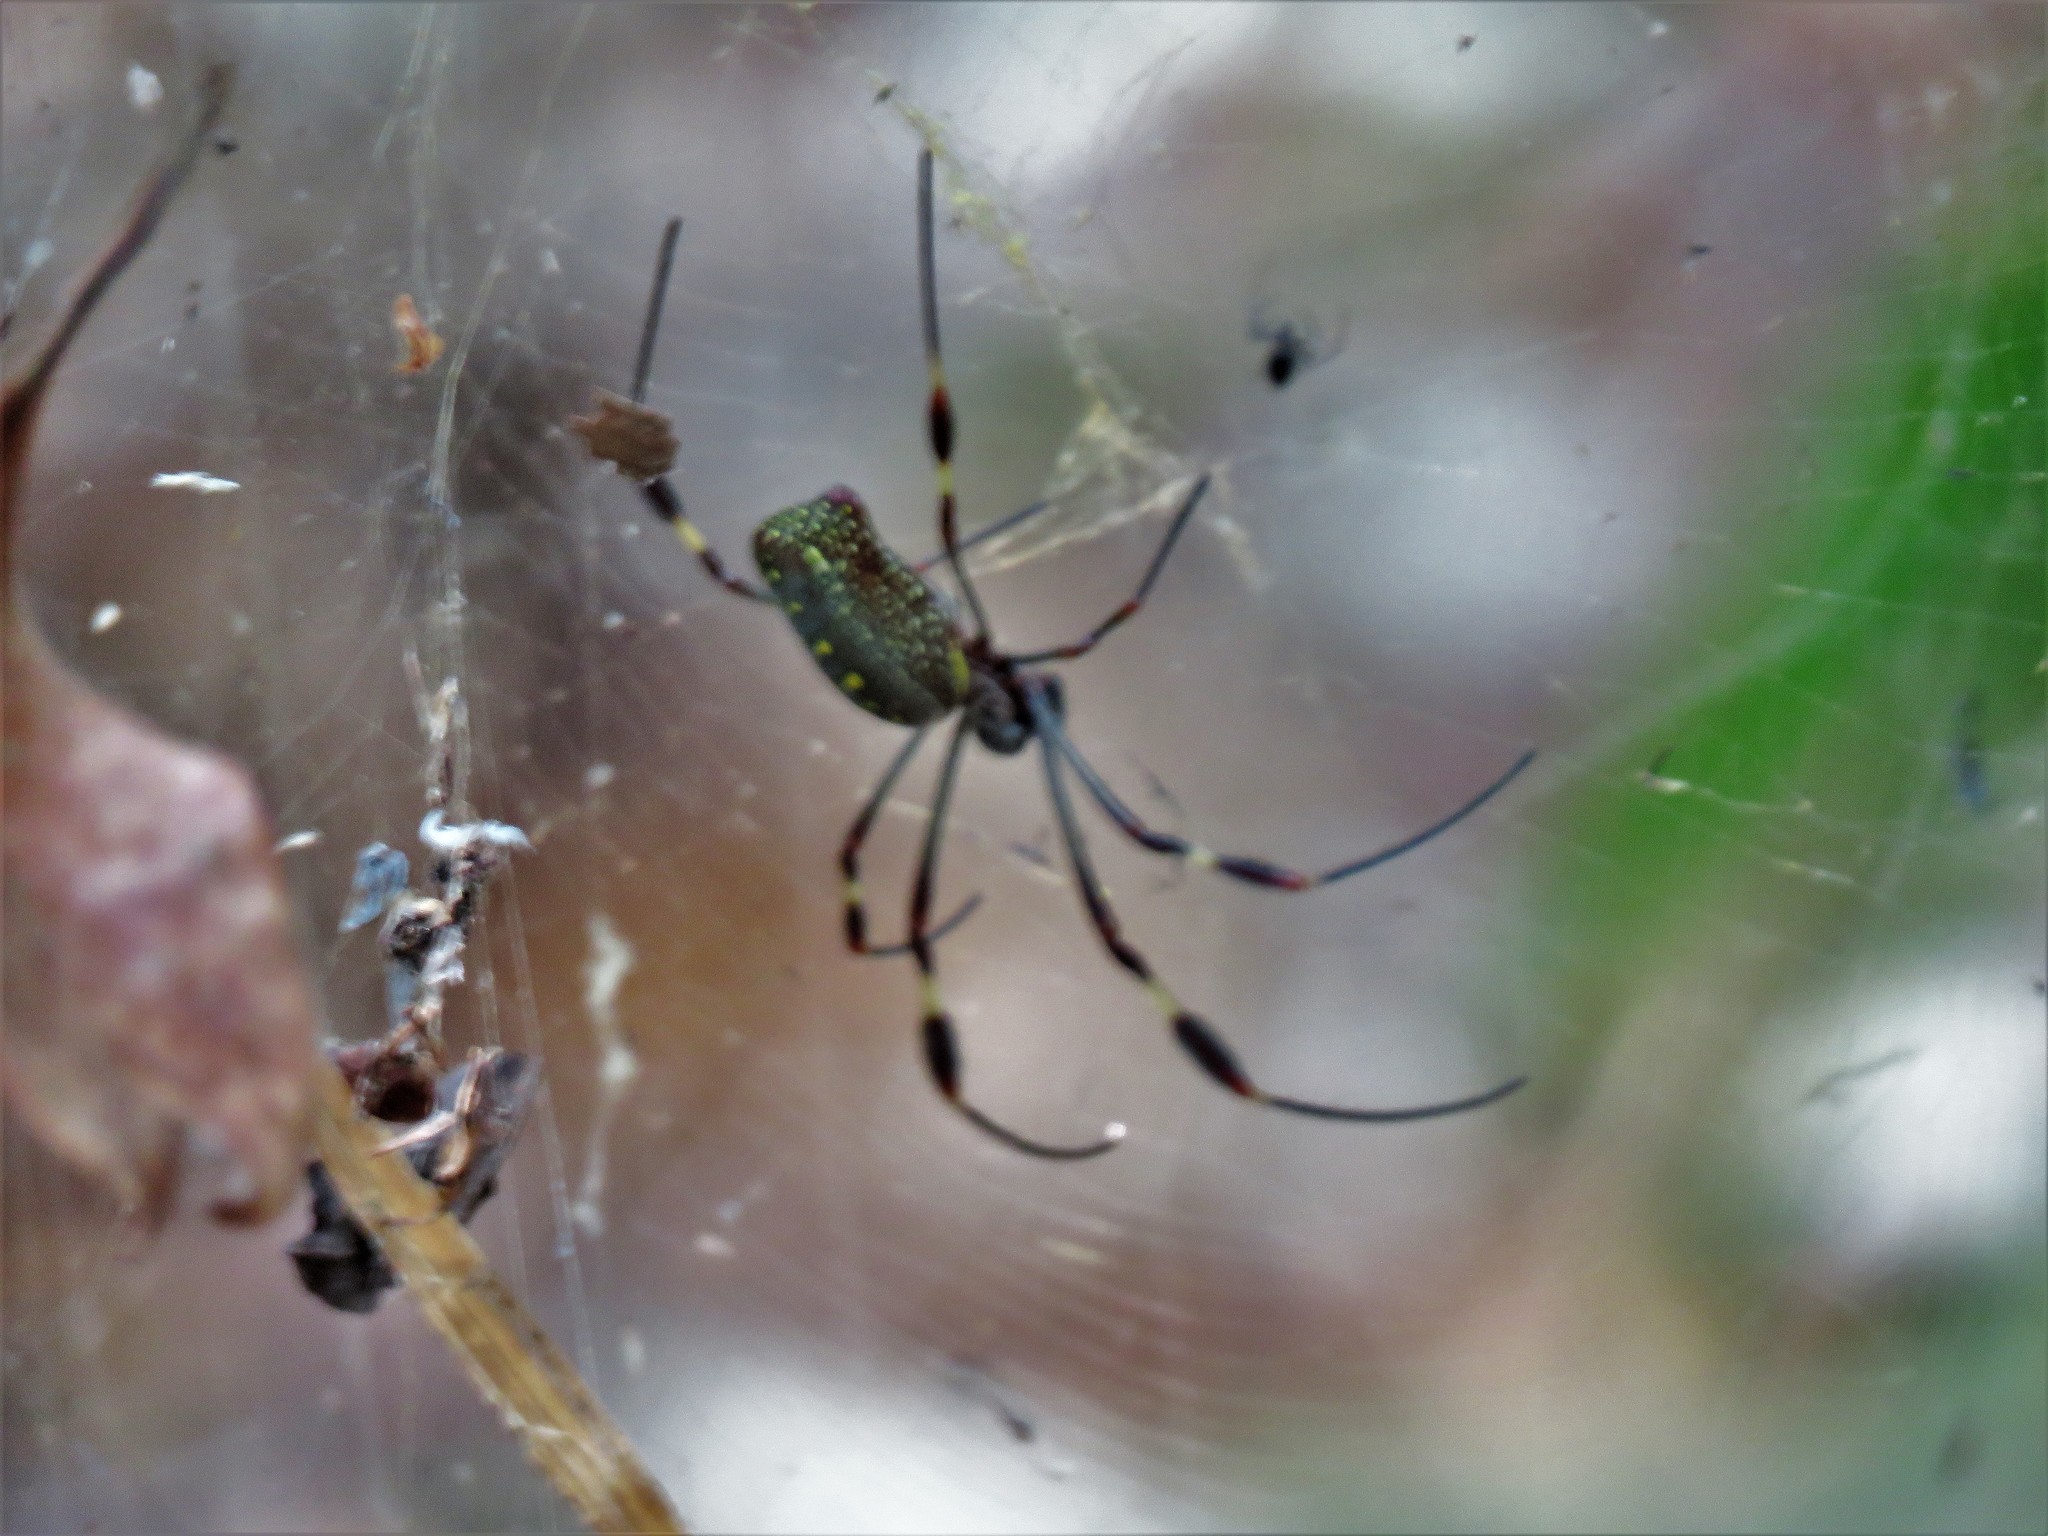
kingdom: Animalia
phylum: Arthropoda
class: Arachnida
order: Araneae
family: Araneidae
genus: Trichonephila
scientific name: Trichonephila clavipes
